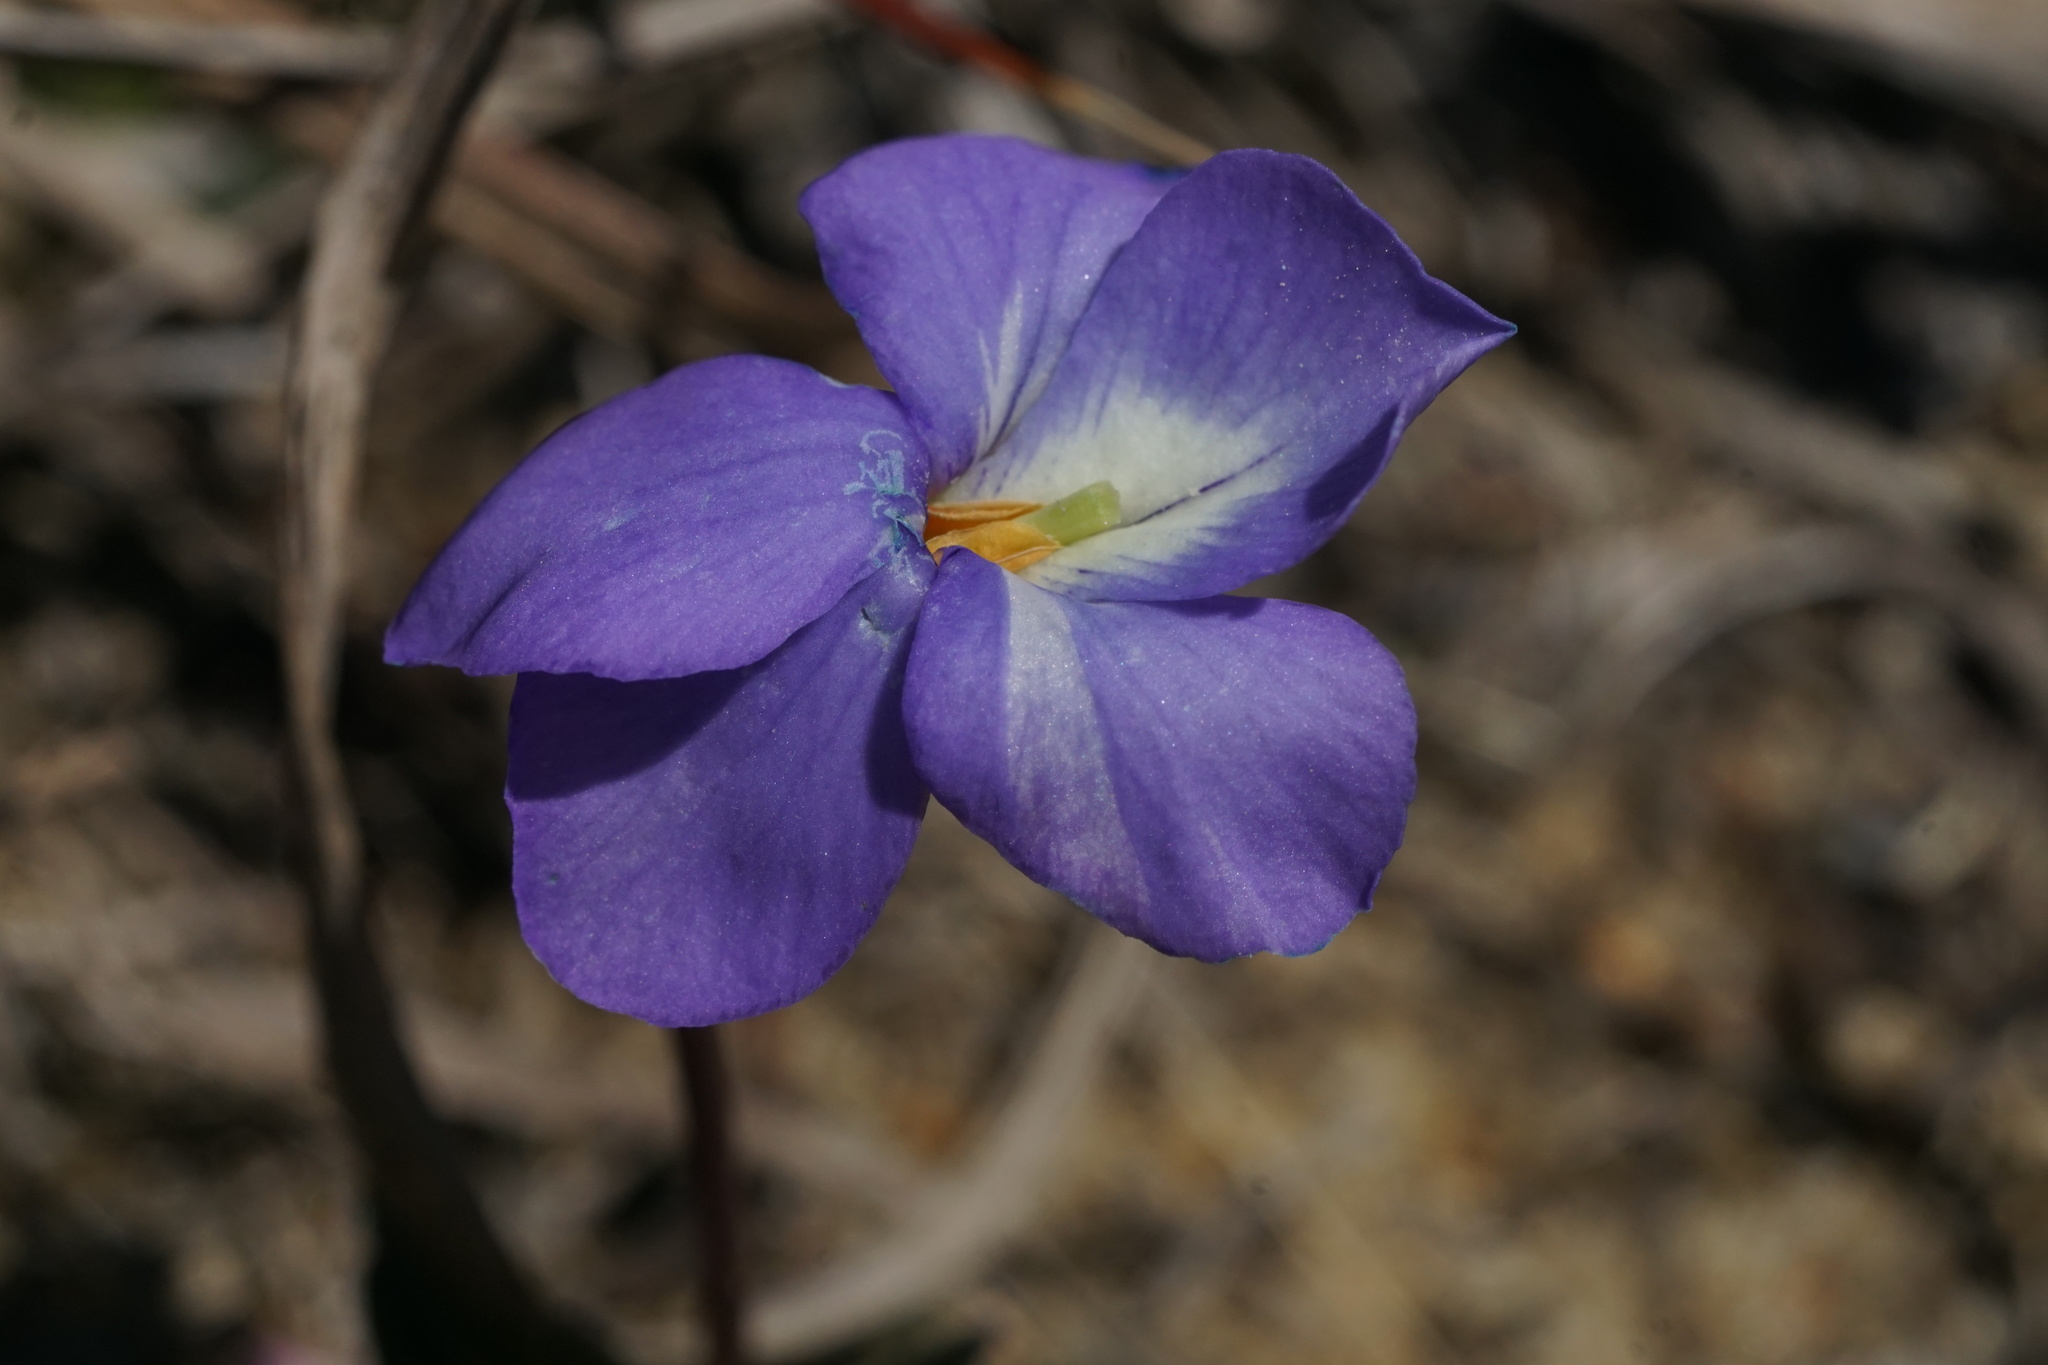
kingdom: Plantae
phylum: Tracheophyta
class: Magnoliopsida
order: Malpighiales
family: Violaceae
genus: Viola
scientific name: Viola pedata
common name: Pansy violet
